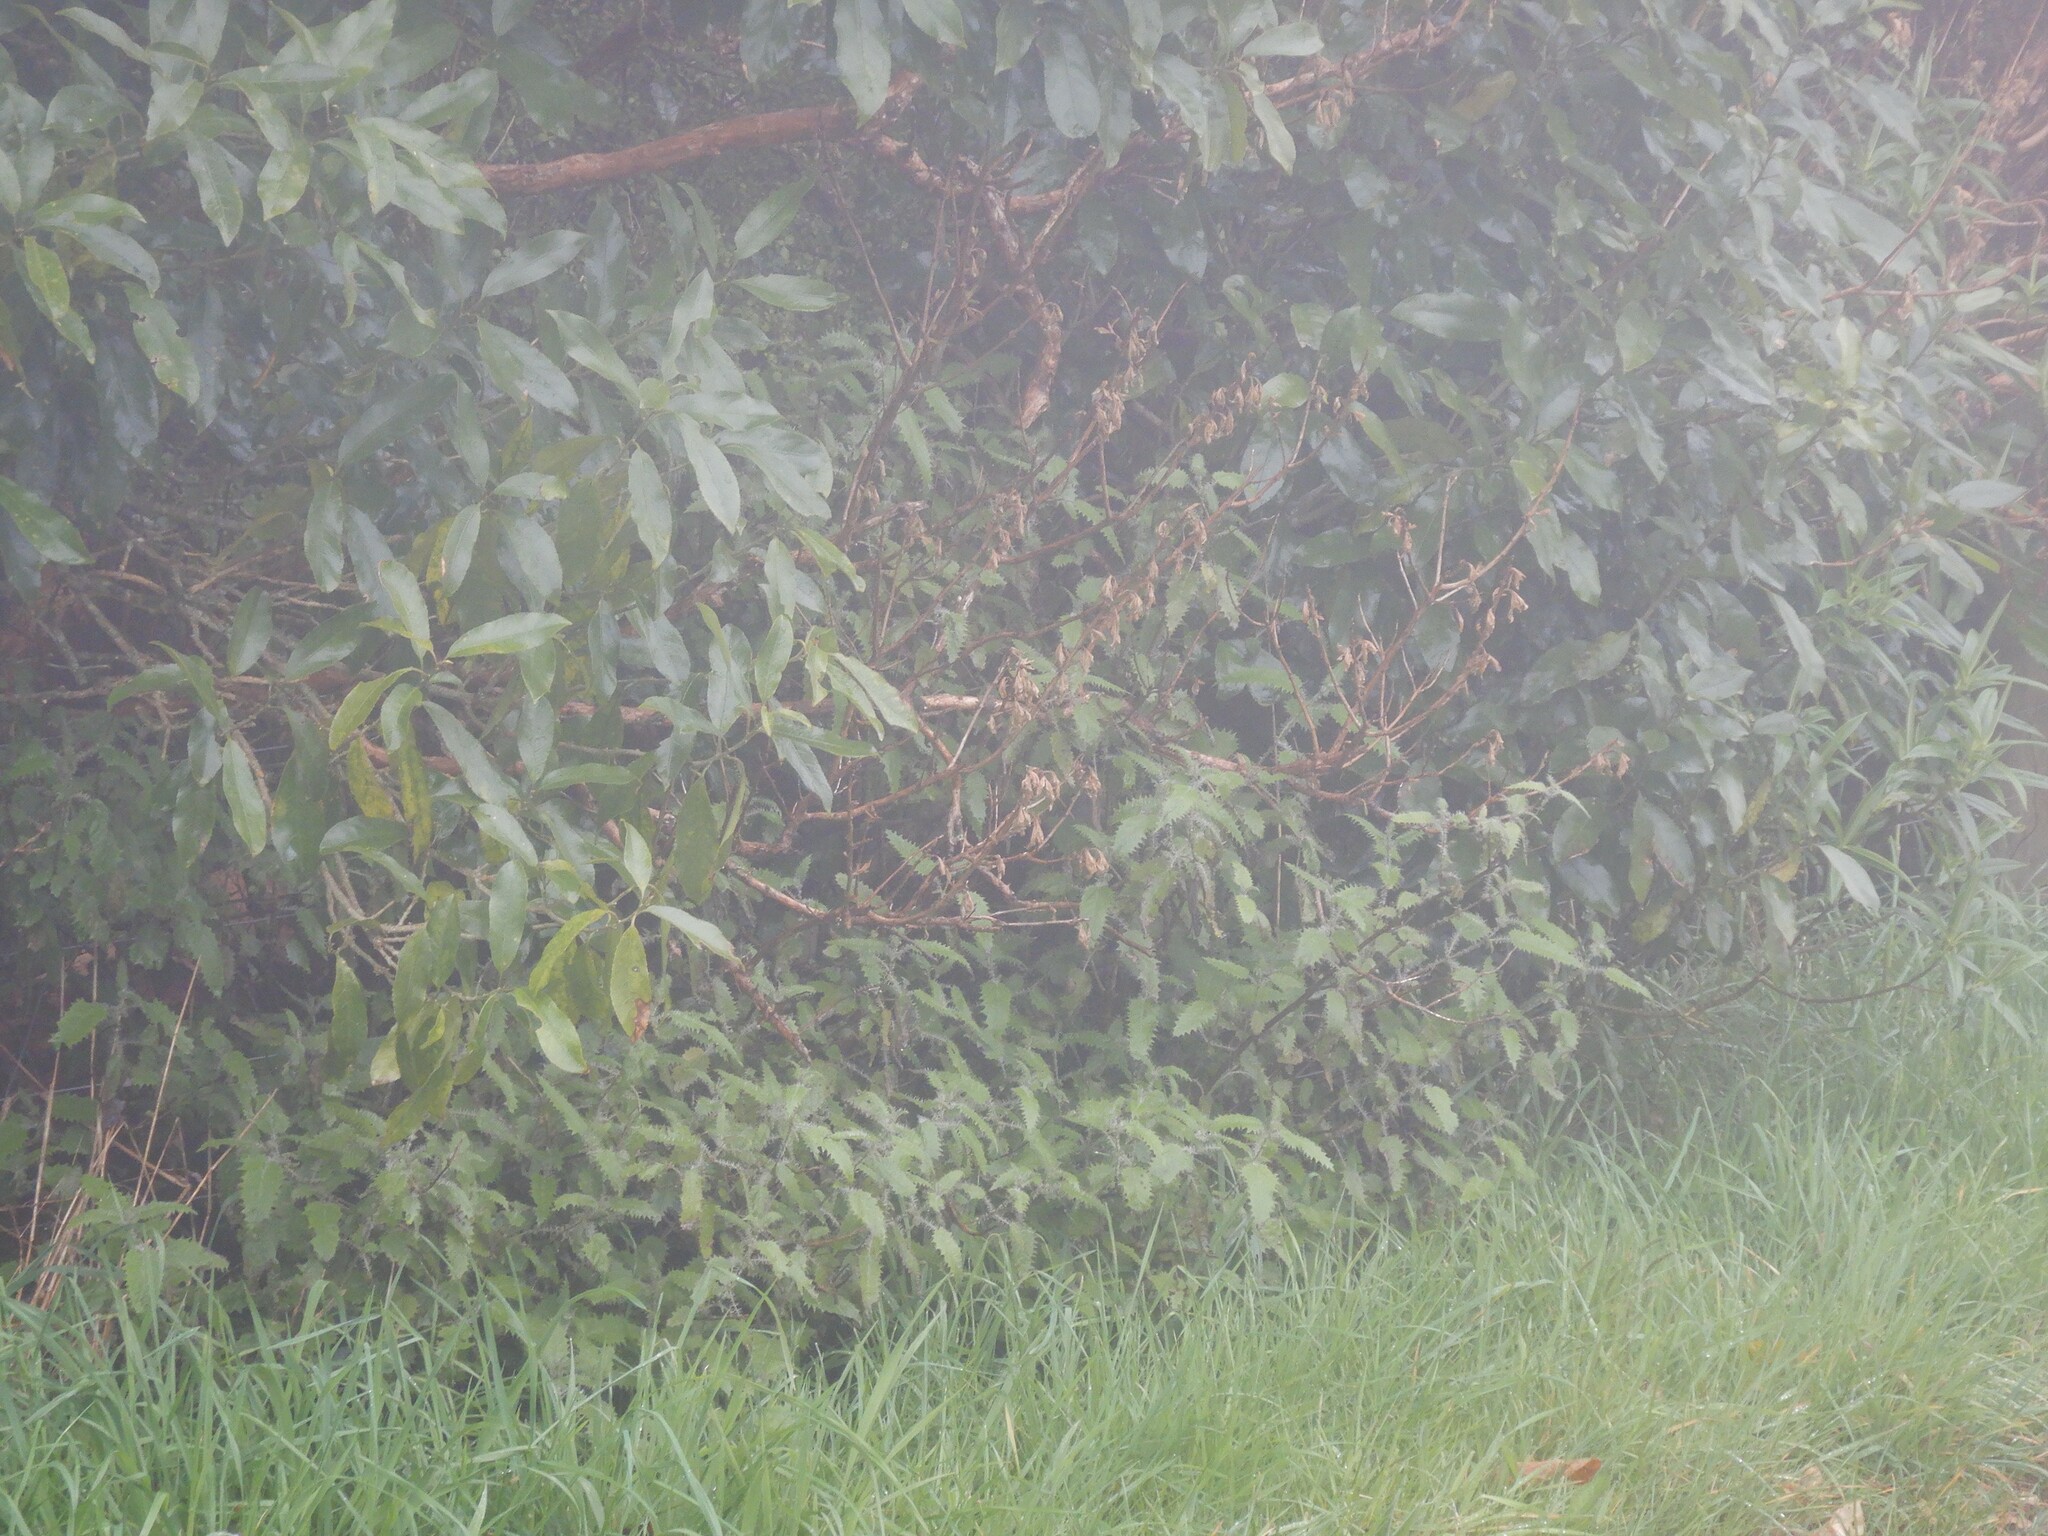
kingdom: Plantae
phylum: Tracheophyta
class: Magnoliopsida
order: Rosales
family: Urticaceae
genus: Urtica
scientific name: Urtica ferox
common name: Tree nettle
